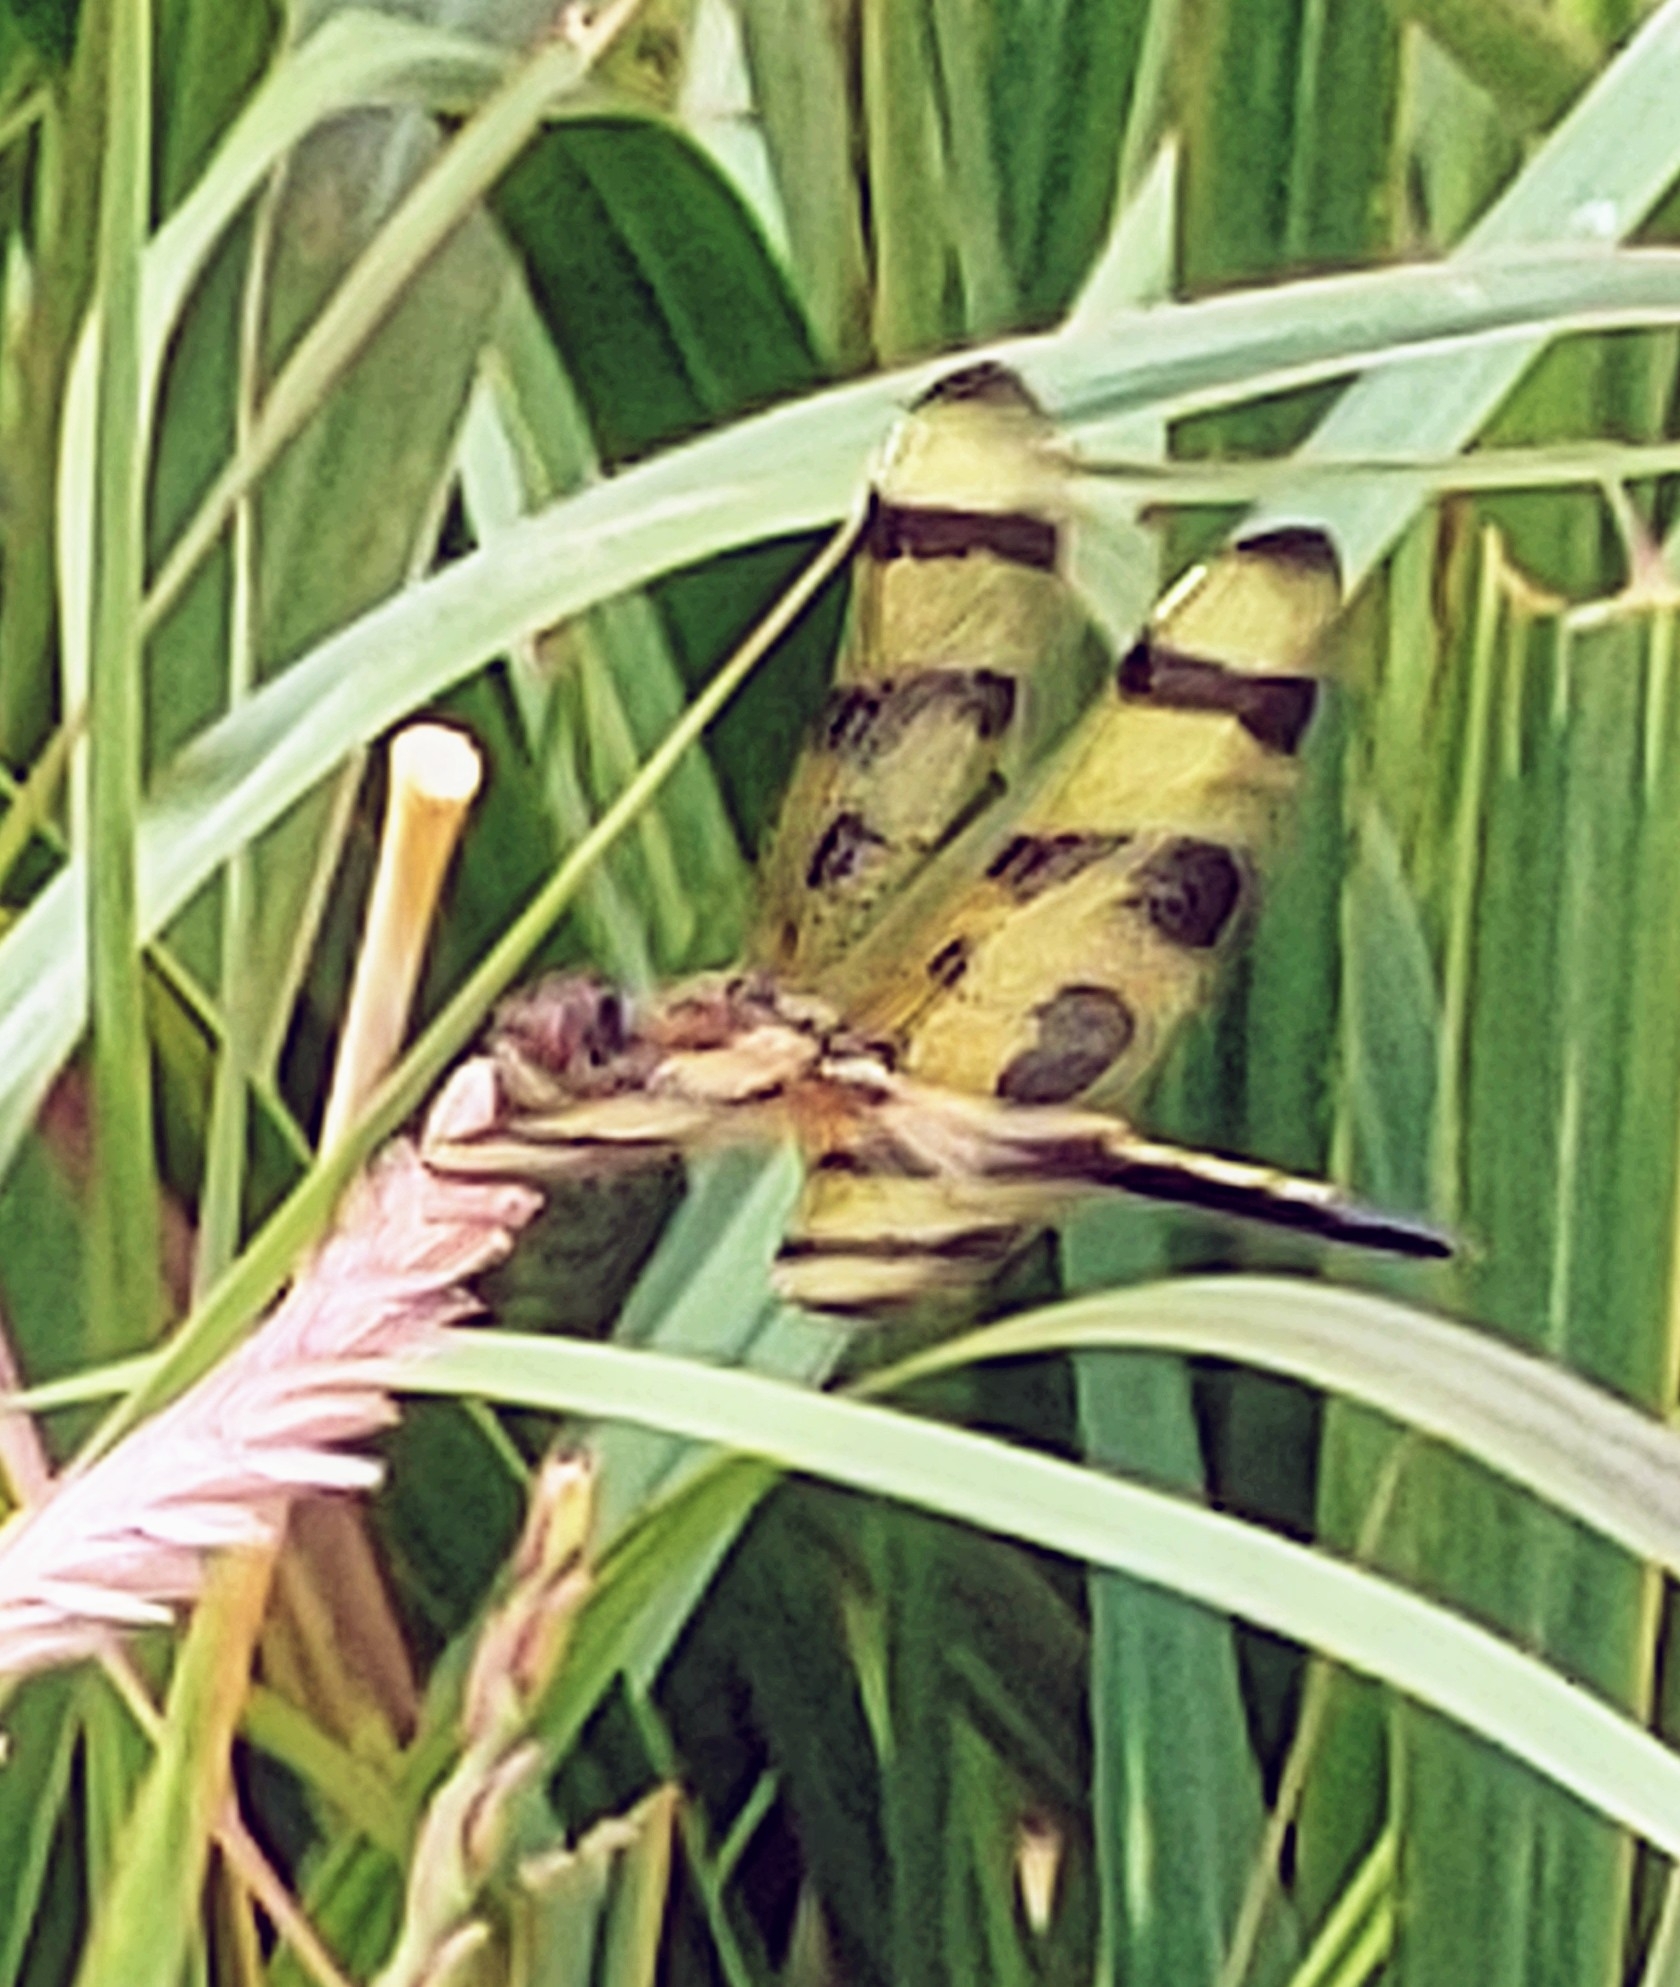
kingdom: Animalia
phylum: Arthropoda
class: Insecta
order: Odonata
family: Libellulidae
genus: Celithemis
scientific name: Celithemis eponina
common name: Halloween pennant
